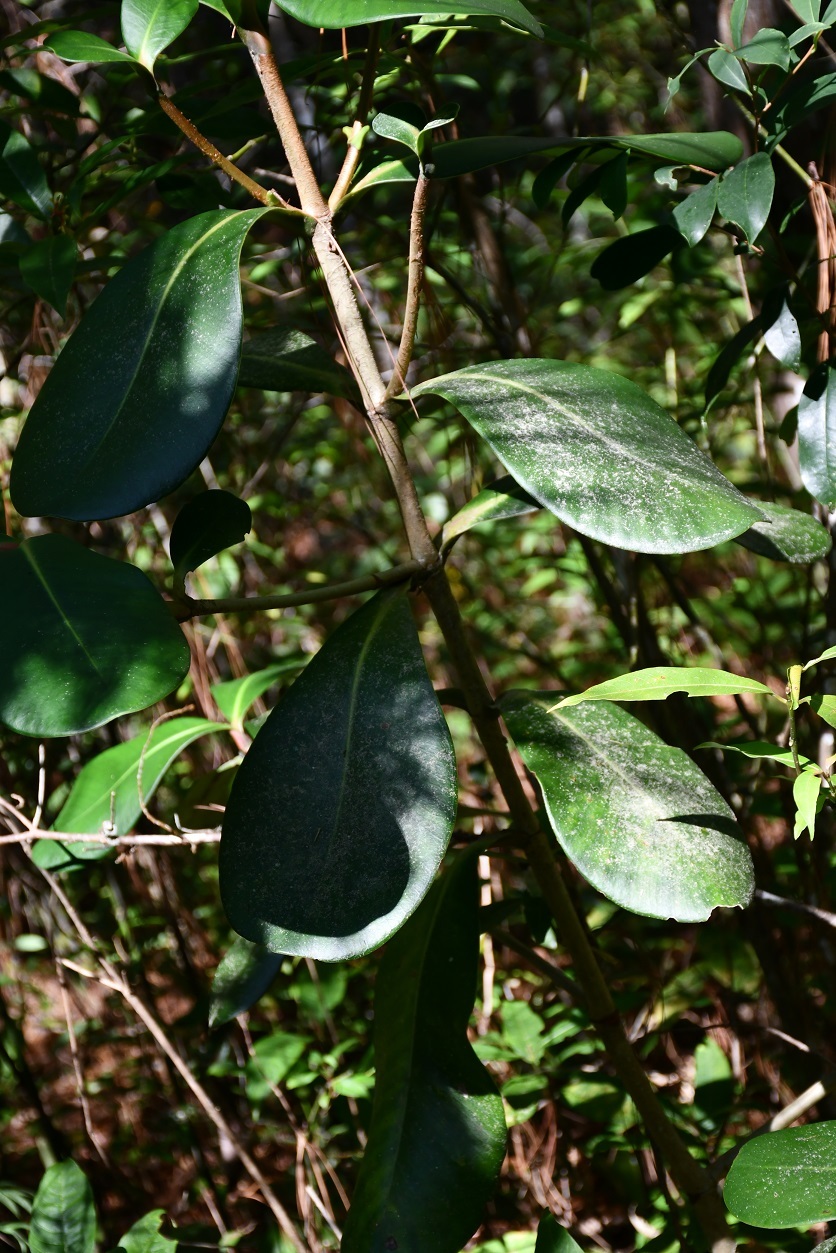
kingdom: Plantae
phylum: Tracheophyta
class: Magnoliopsida
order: Malpighiales
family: Clusiaceae
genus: Clusia
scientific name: Clusia rosea
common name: Scotch attorney
